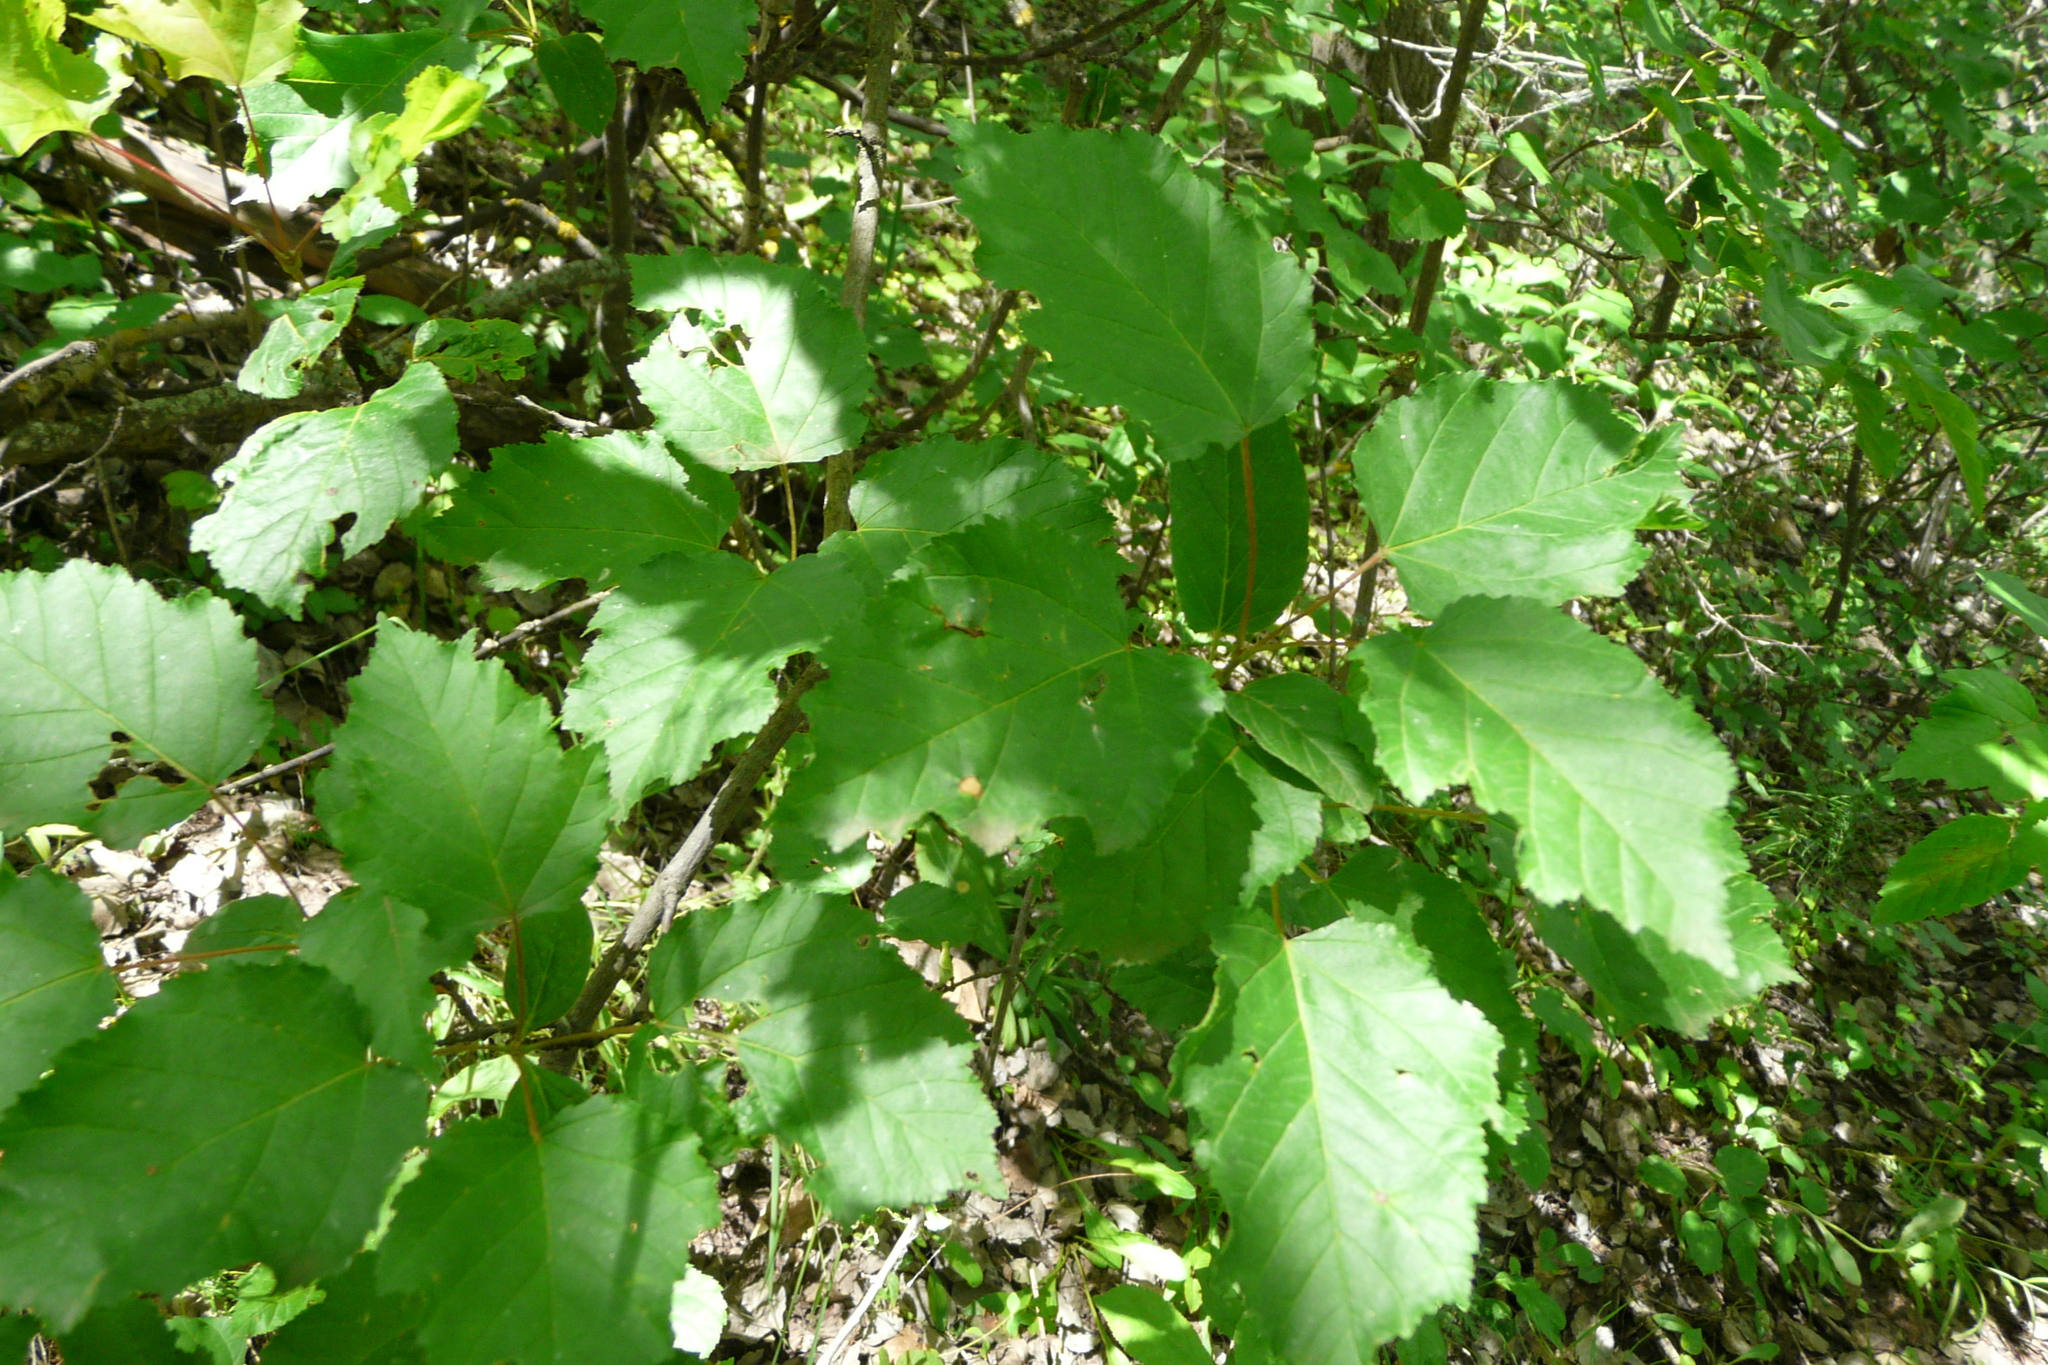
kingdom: Plantae
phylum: Tracheophyta
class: Magnoliopsida
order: Sapindales
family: Sapindaceae
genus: Acer
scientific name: Acer tataricum
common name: Tartar maple
